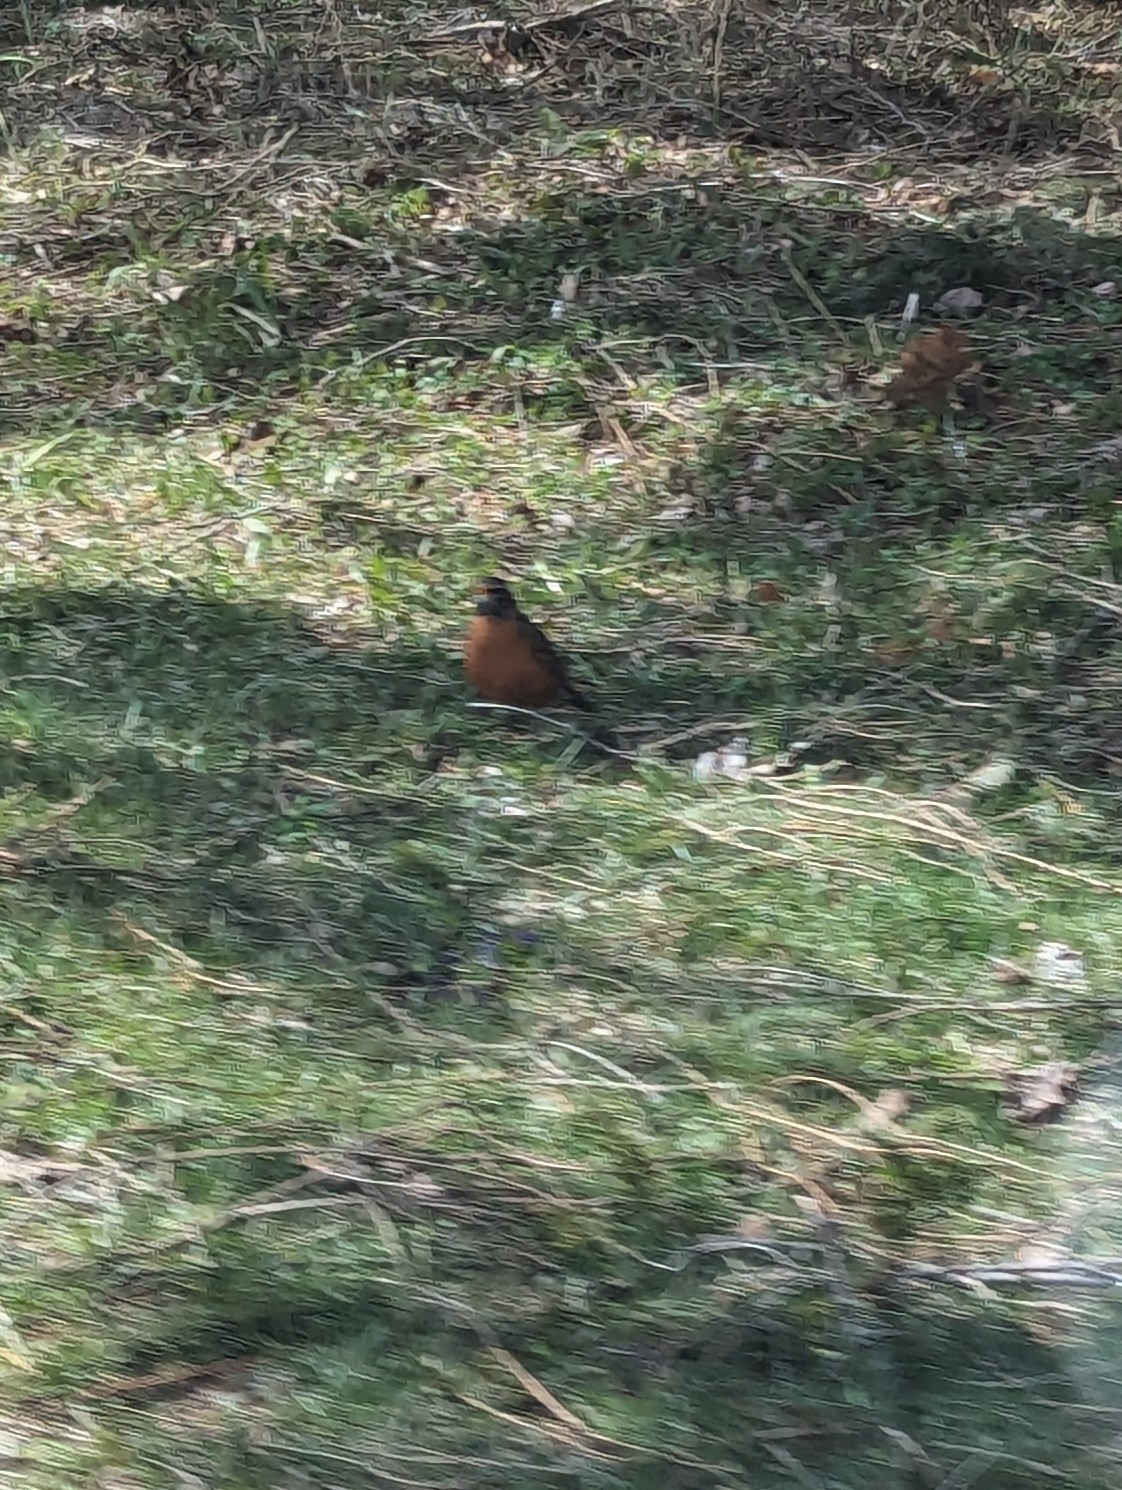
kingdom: Animalia
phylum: Chordata
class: Aves
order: Passeriformes
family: Turdidae
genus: Turdus
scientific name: Turdus migratorius
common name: American robin
